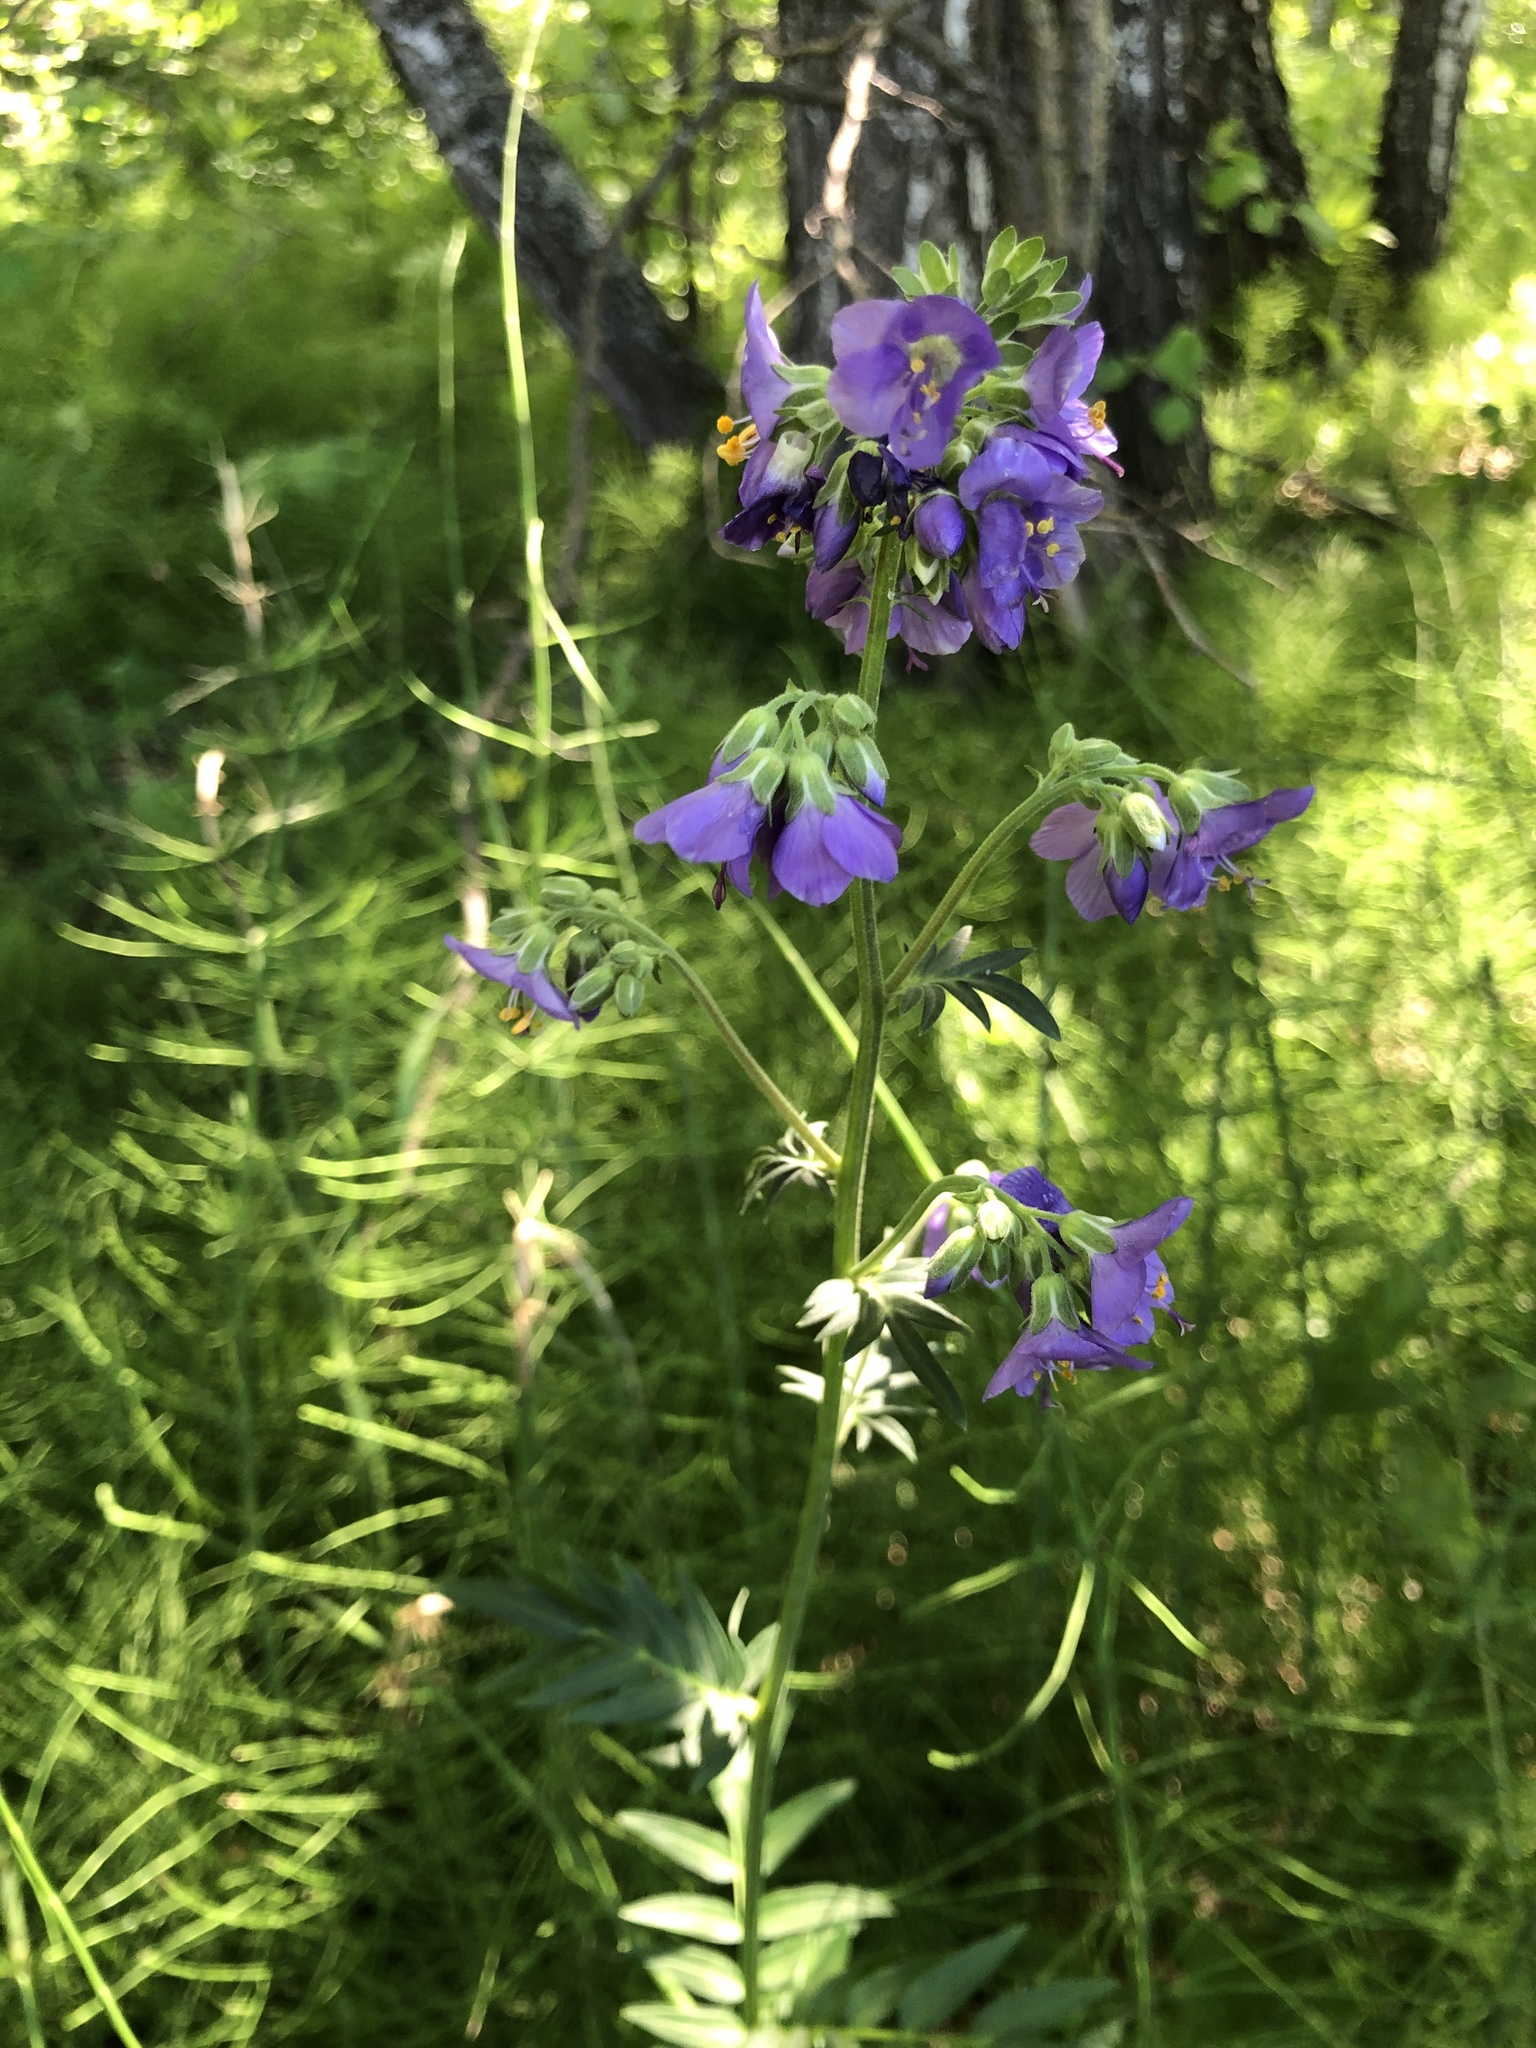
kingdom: Plantae
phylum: Tracheophyta
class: Magnoliopsida
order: Ericales
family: Polemoniaceae
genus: Polemonium
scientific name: Polemonium caeruleum
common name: Jacob's-ladder
